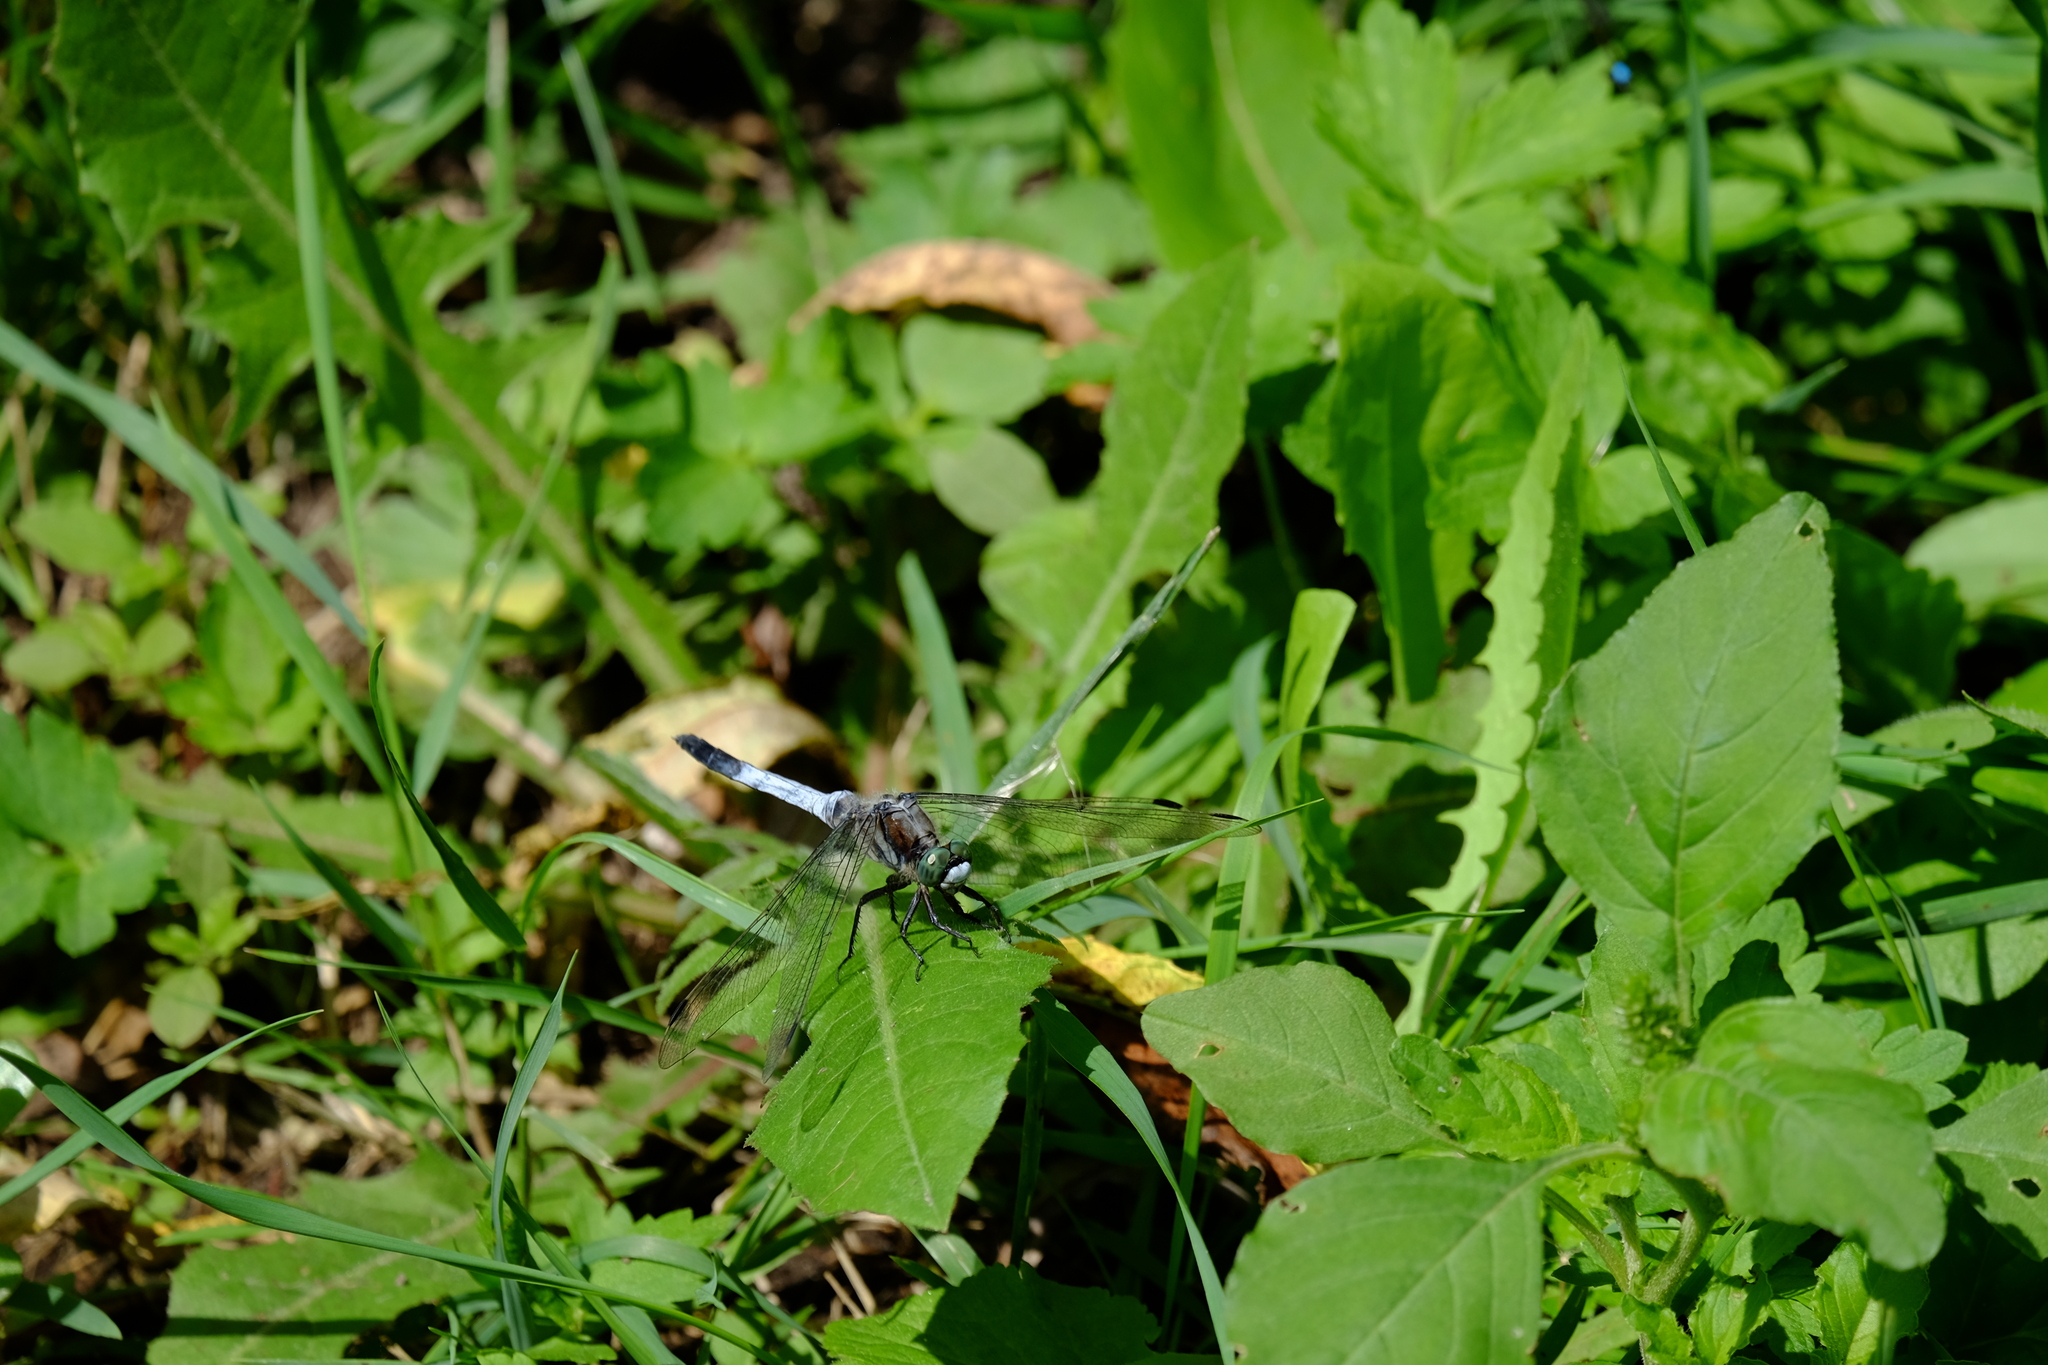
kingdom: Animalia
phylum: Arthropoda
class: Insecta
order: Odonata
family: Libellulidae
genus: Orthetrum
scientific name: Orthetrum albistylum
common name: White-tailed skimmer
